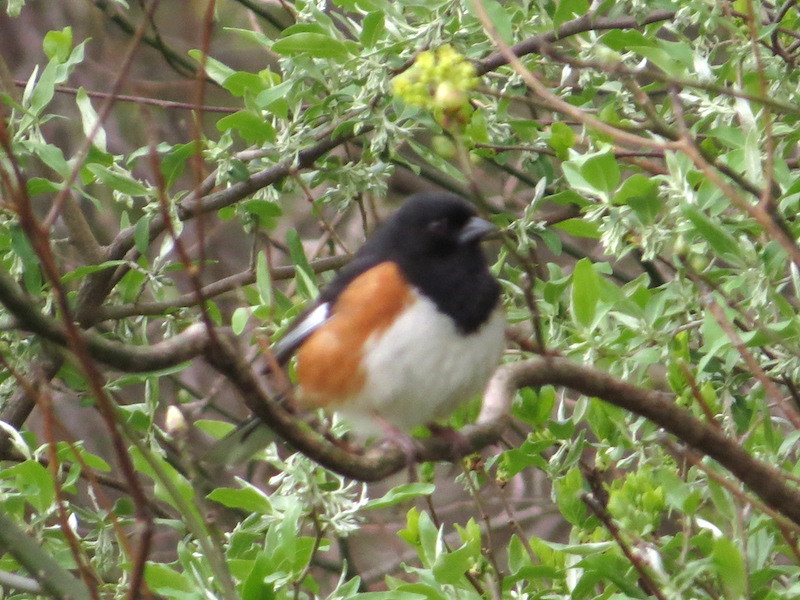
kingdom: Animalia
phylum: Chordata
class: Aves
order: Passeriformes
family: Passerellidae
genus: Pipilo
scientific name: Pipilo erythrophthalmus
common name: Eastern towhee
